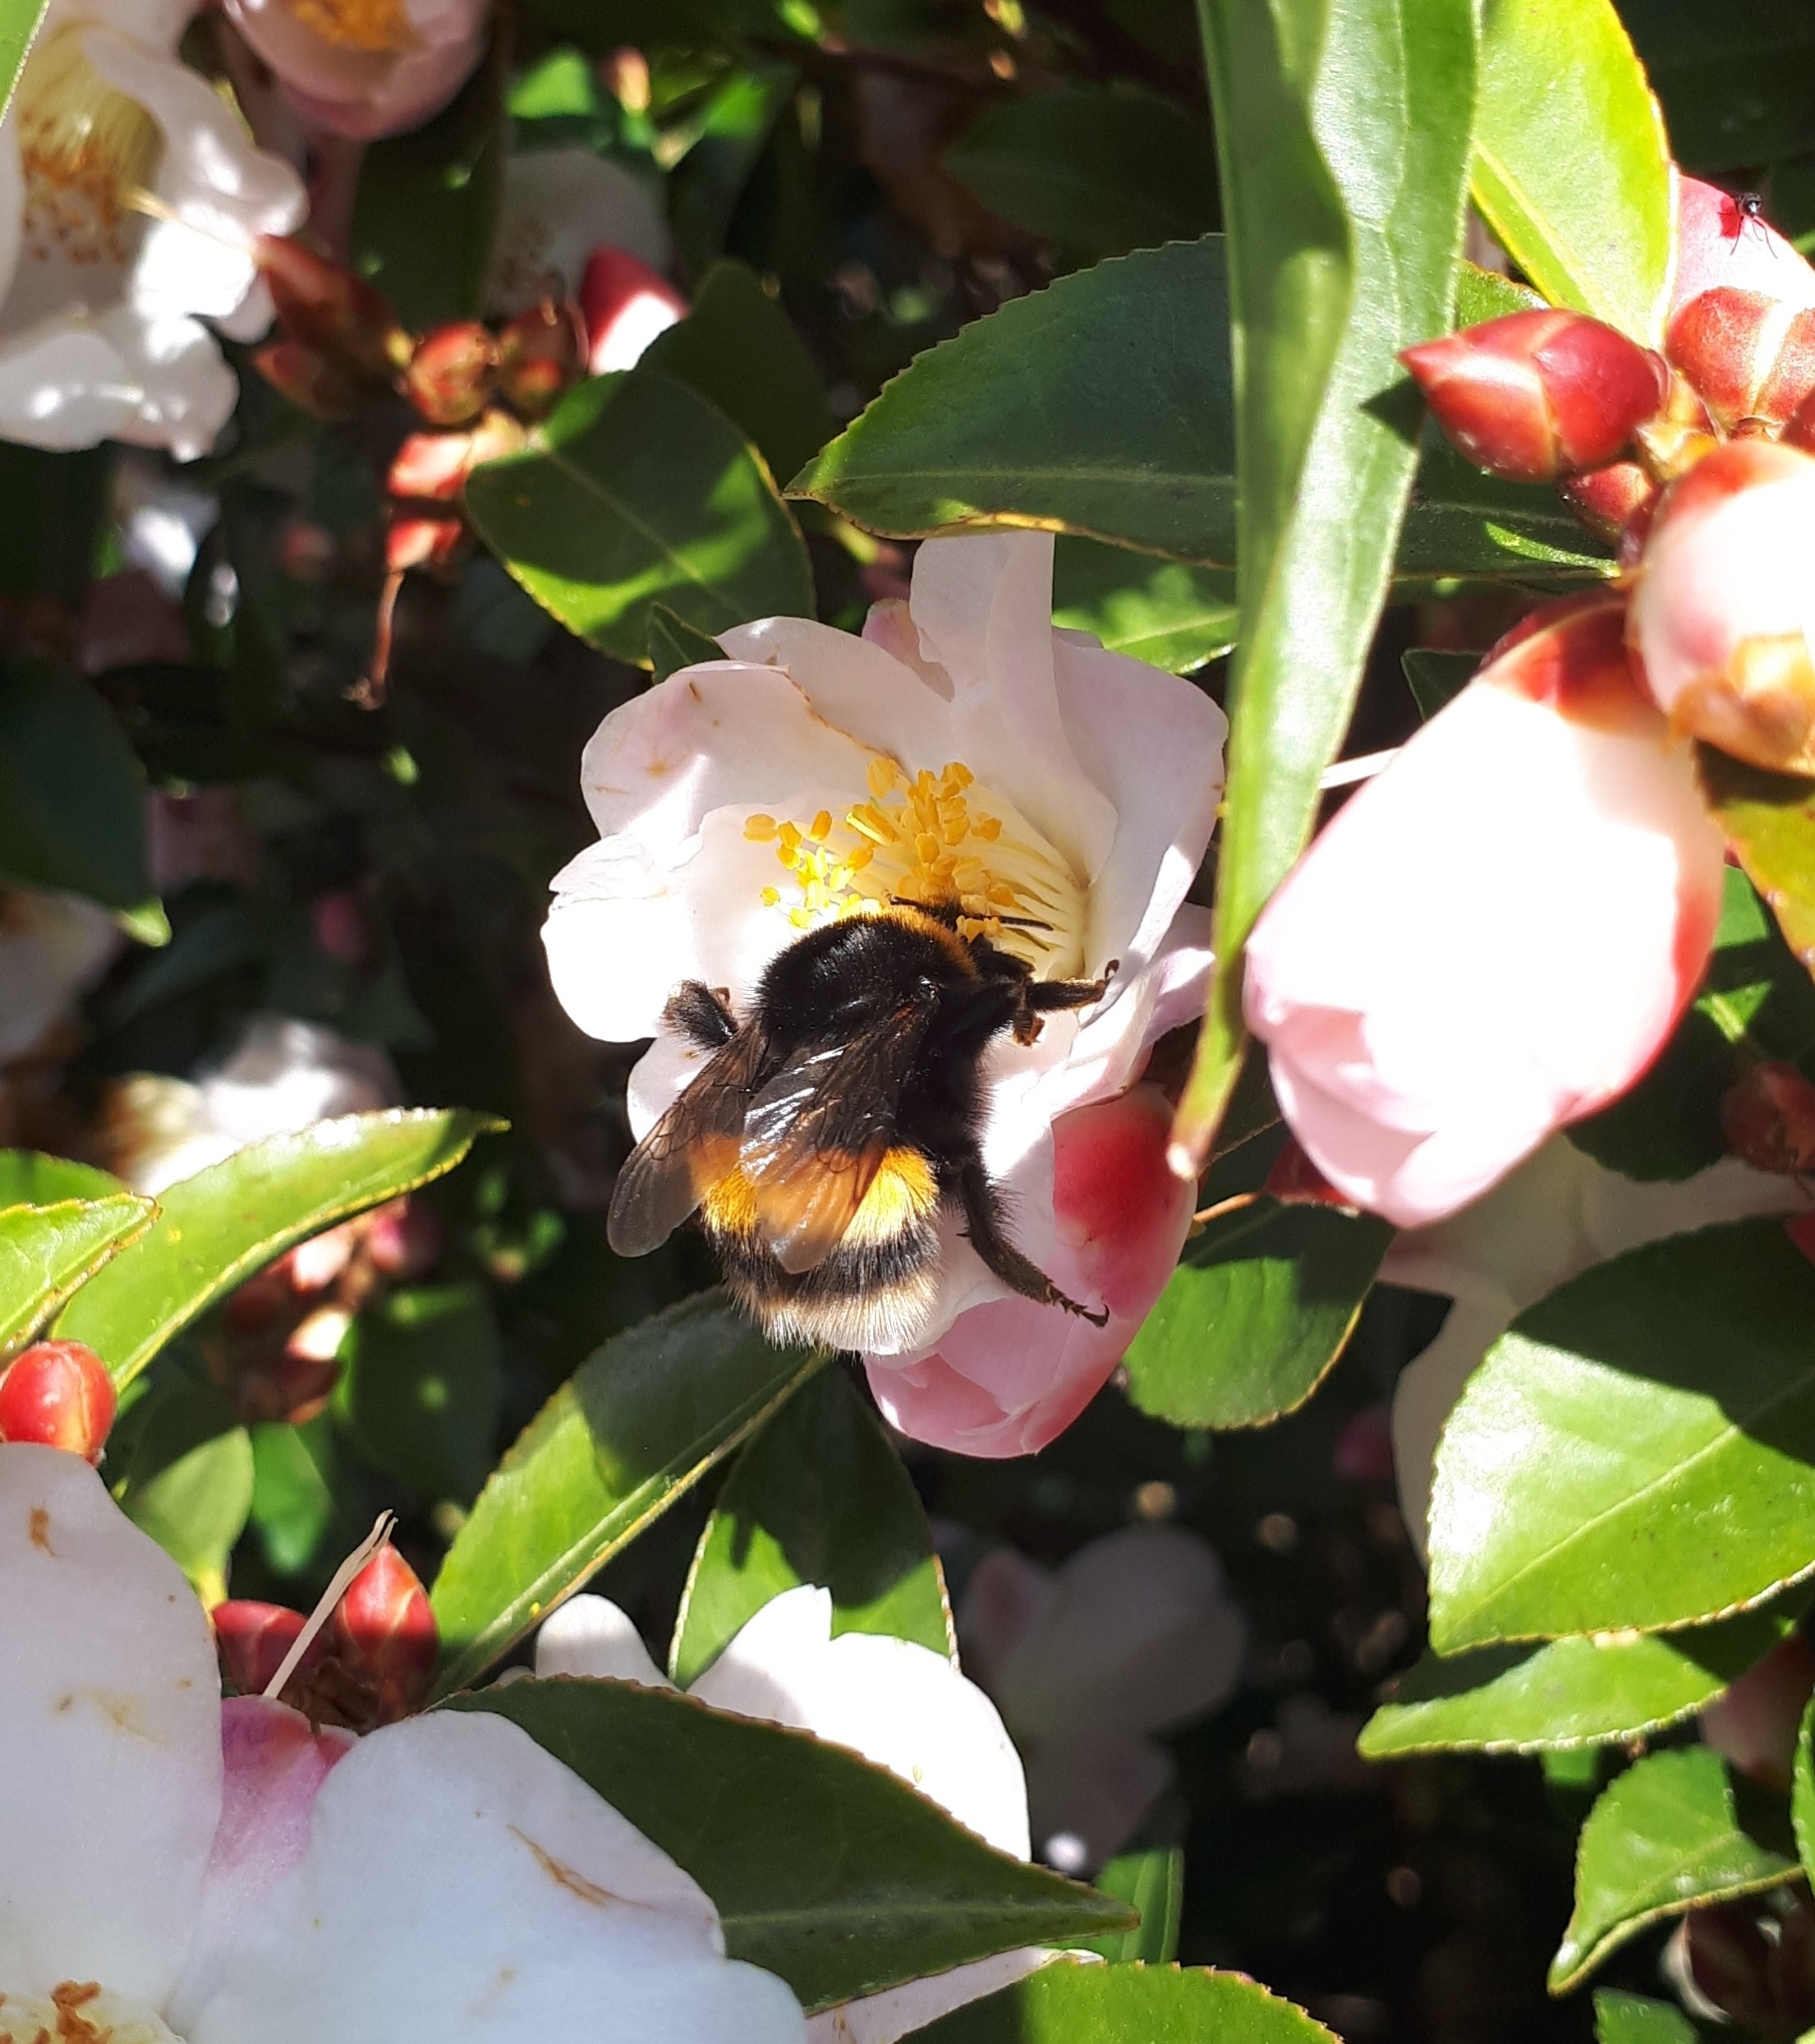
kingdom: Animalia
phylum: Arthropoda
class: Insecta
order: Hymenoptera
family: Apidae
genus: Bombus
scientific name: Bombus terrestris
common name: Buff-tailed bumblebee
